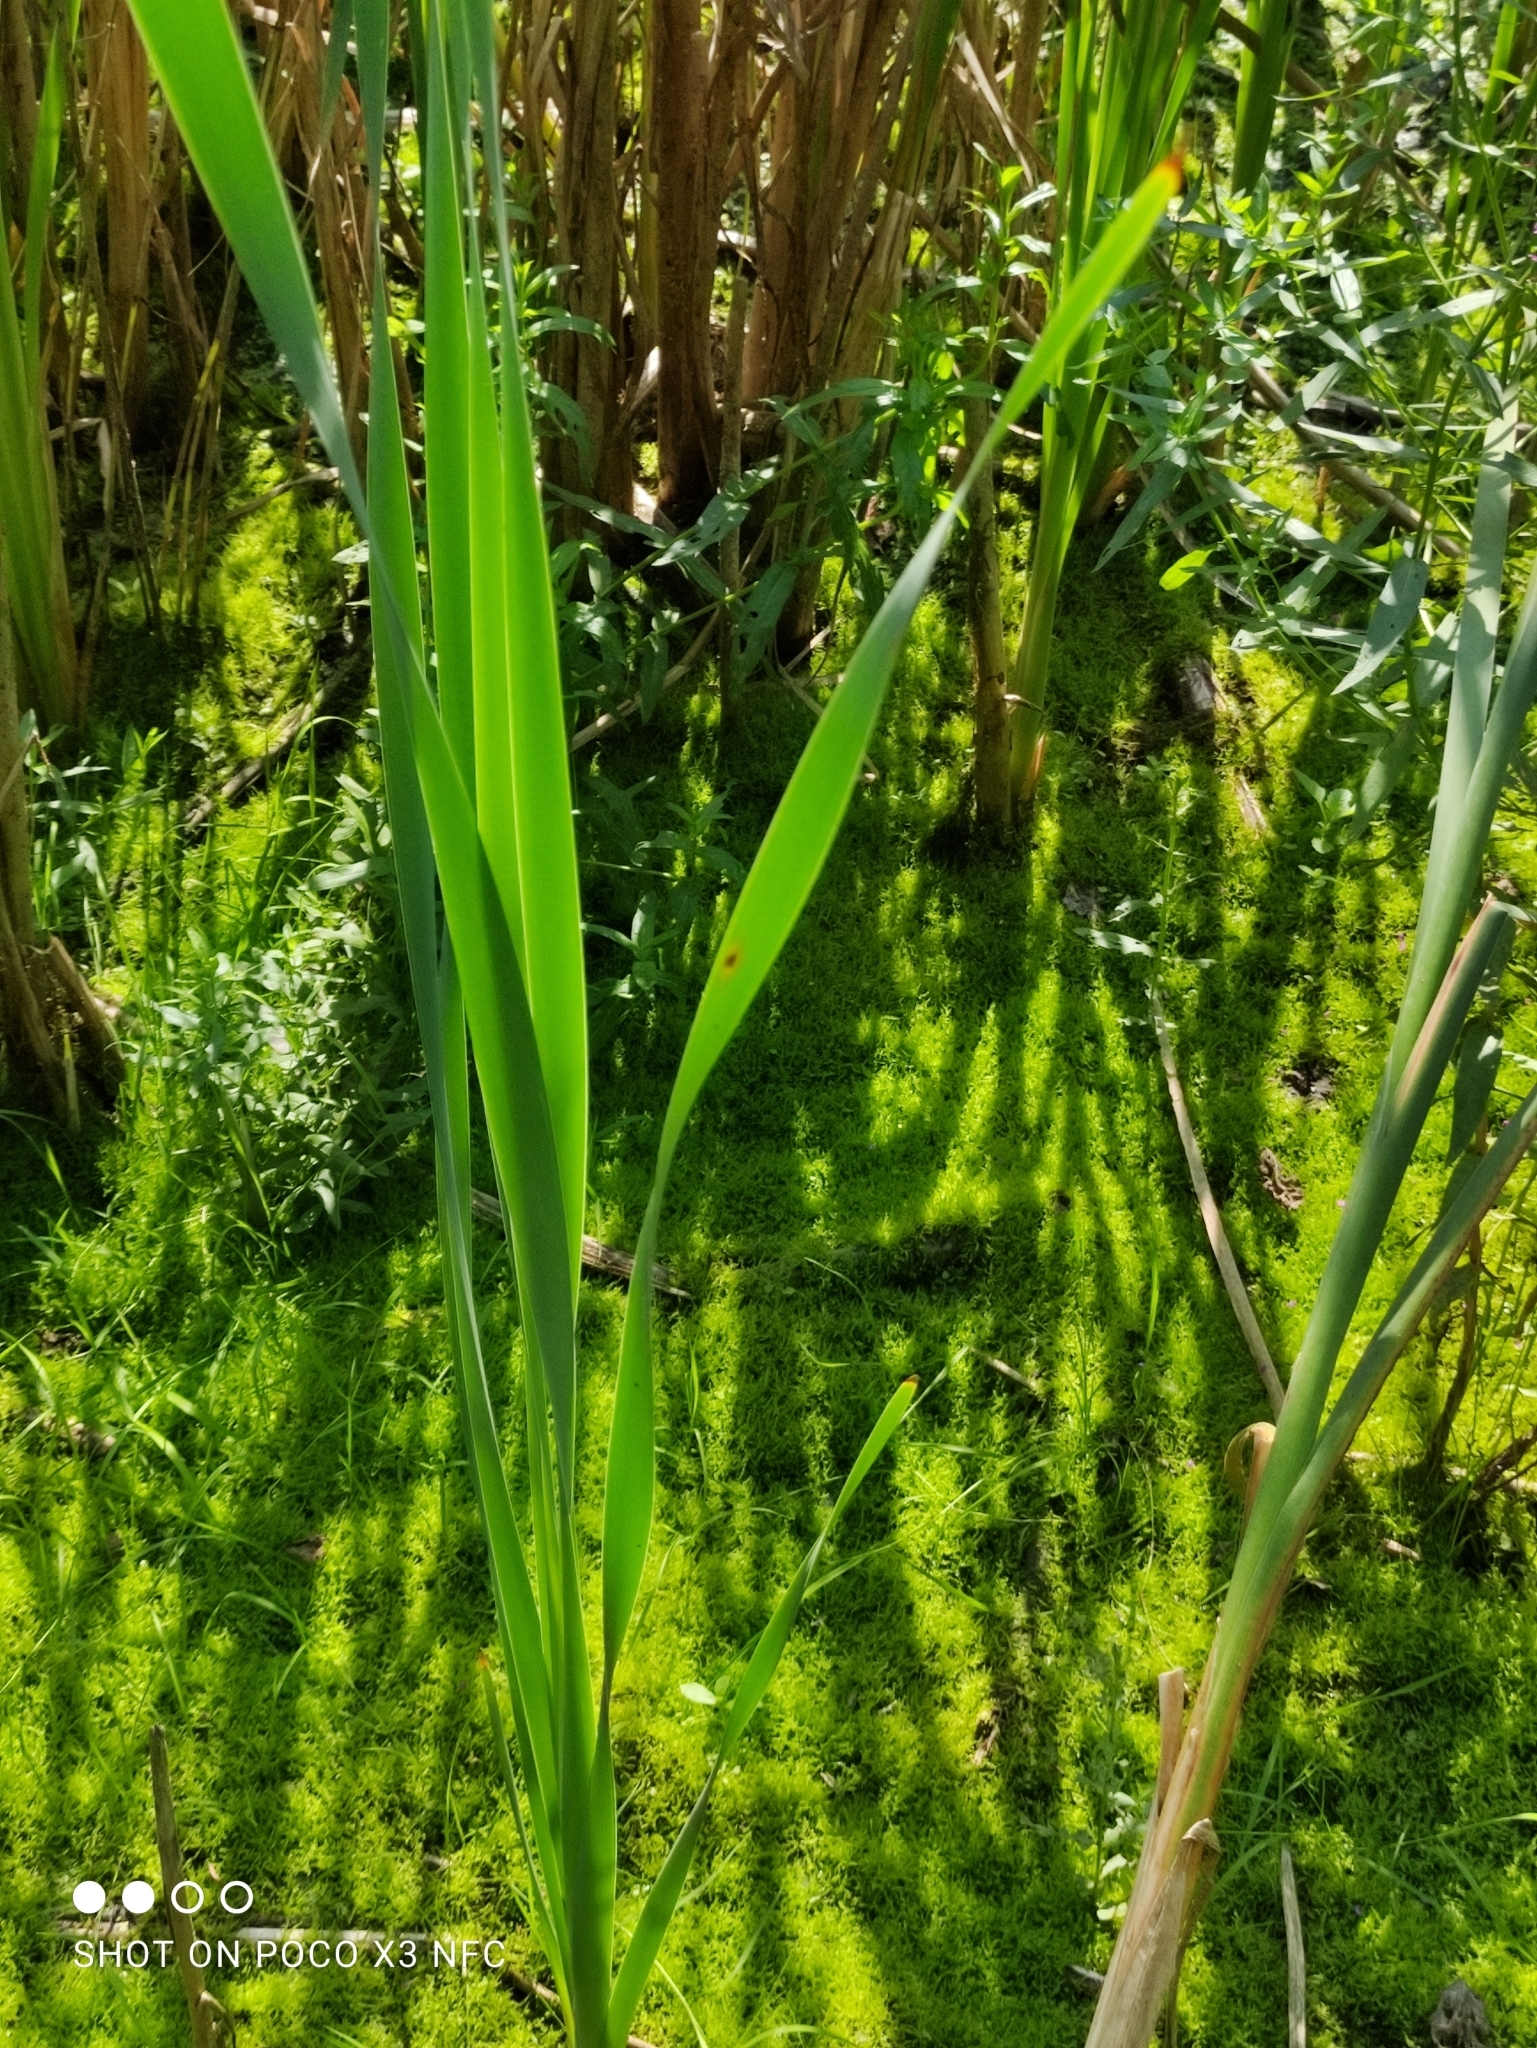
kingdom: Plantae
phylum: Tracheophyta
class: Liliopsida
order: Poales
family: Typhaceae
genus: Typha
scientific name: Typha latifolia
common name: Broadleaf cattail
